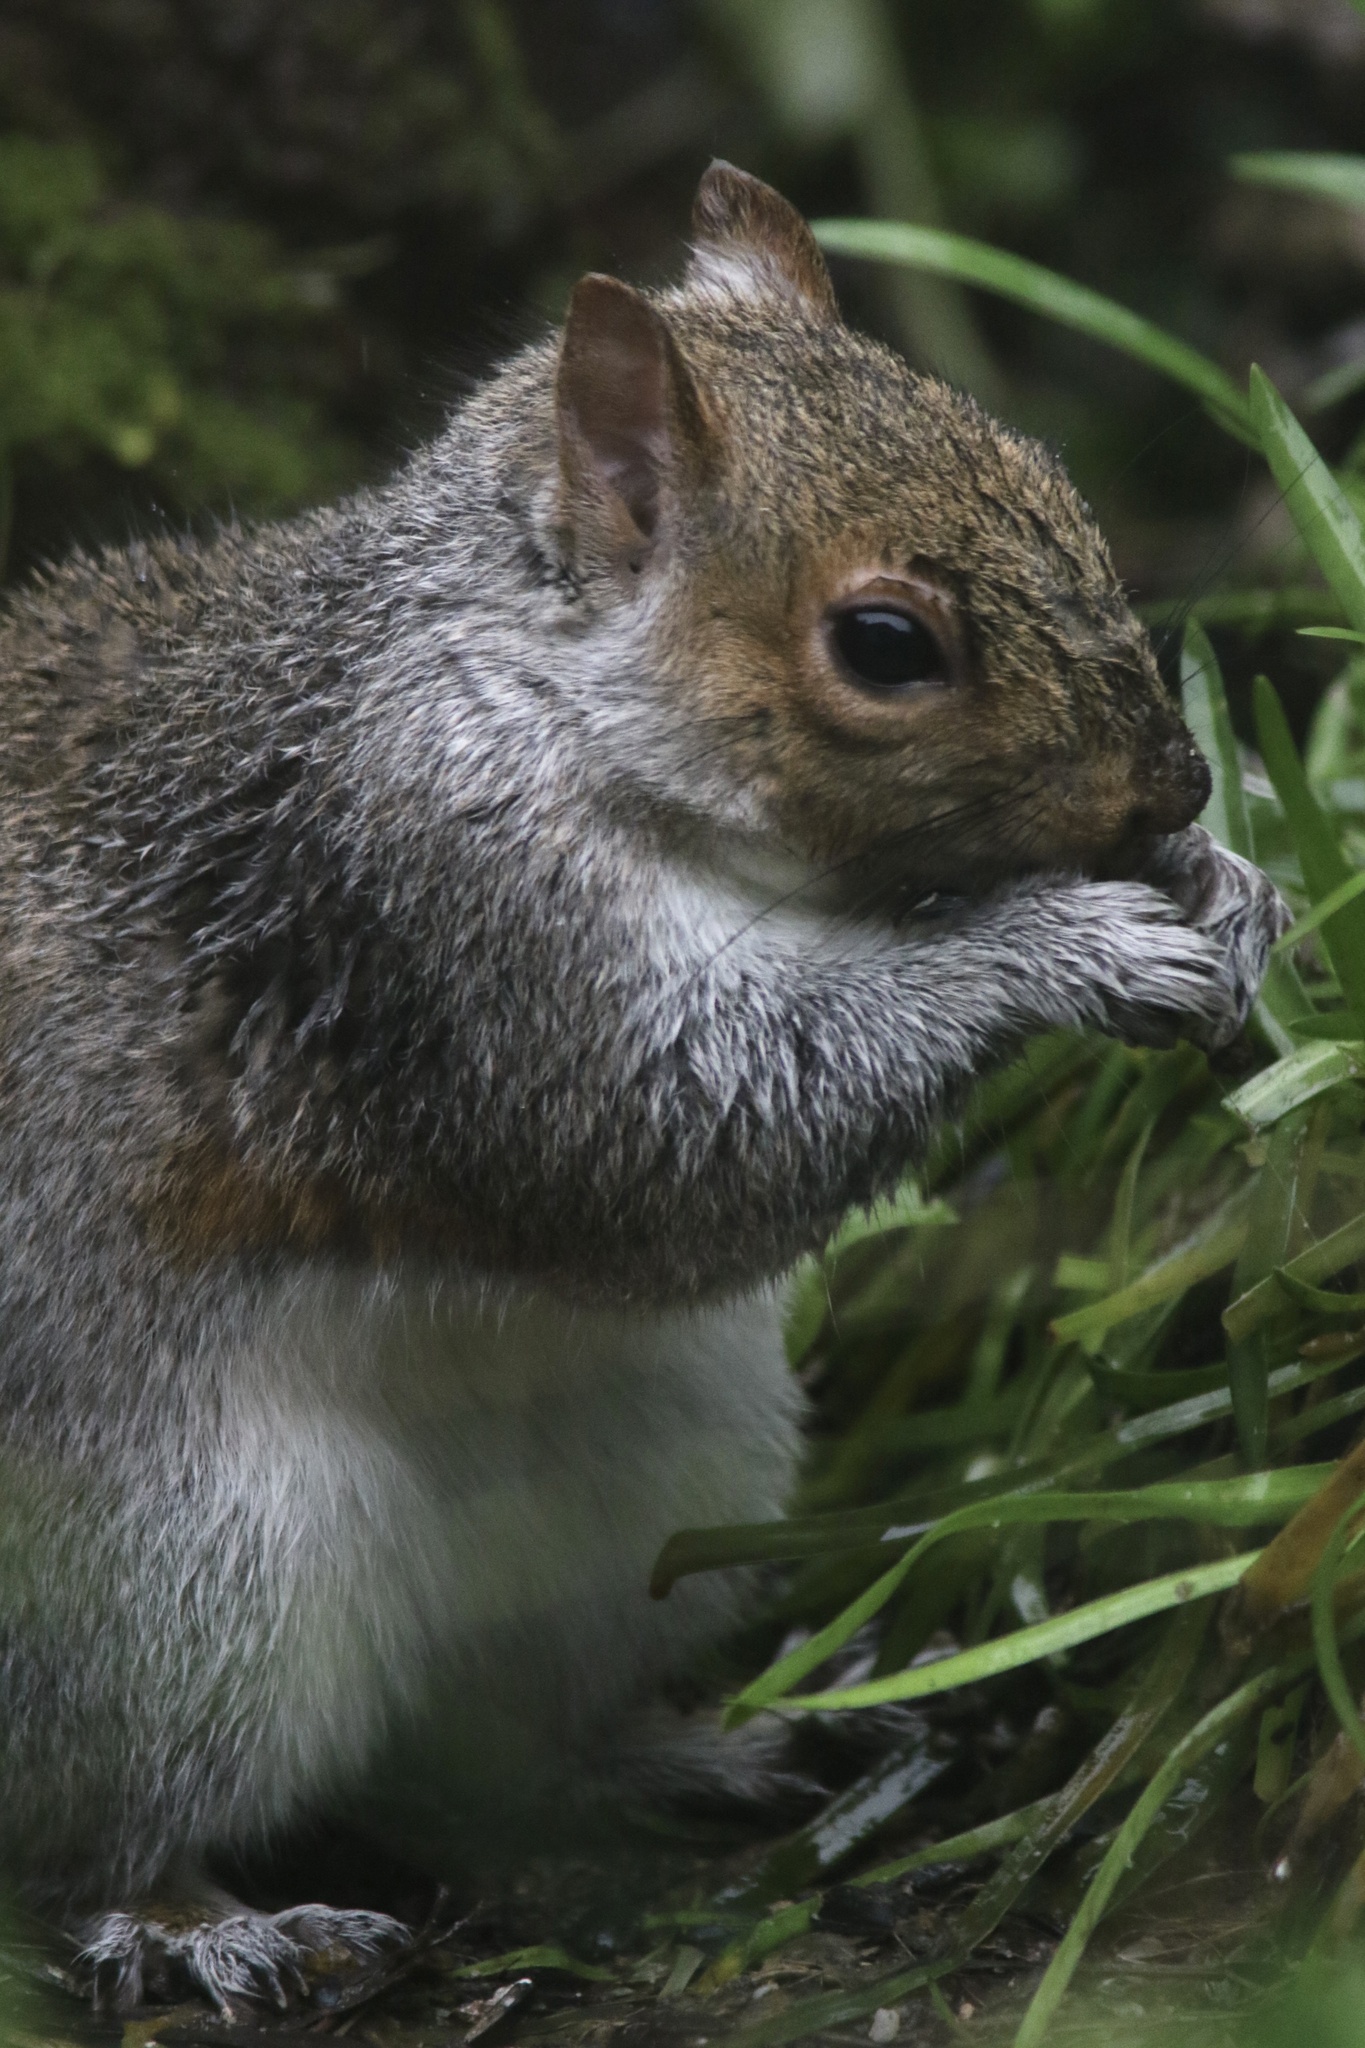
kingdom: Animalia
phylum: Chordata
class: Mammalia
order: Rodentia
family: Sciuridae
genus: Sciurus
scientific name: Sciurus carolinensis
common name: Eastern gray squirrel
